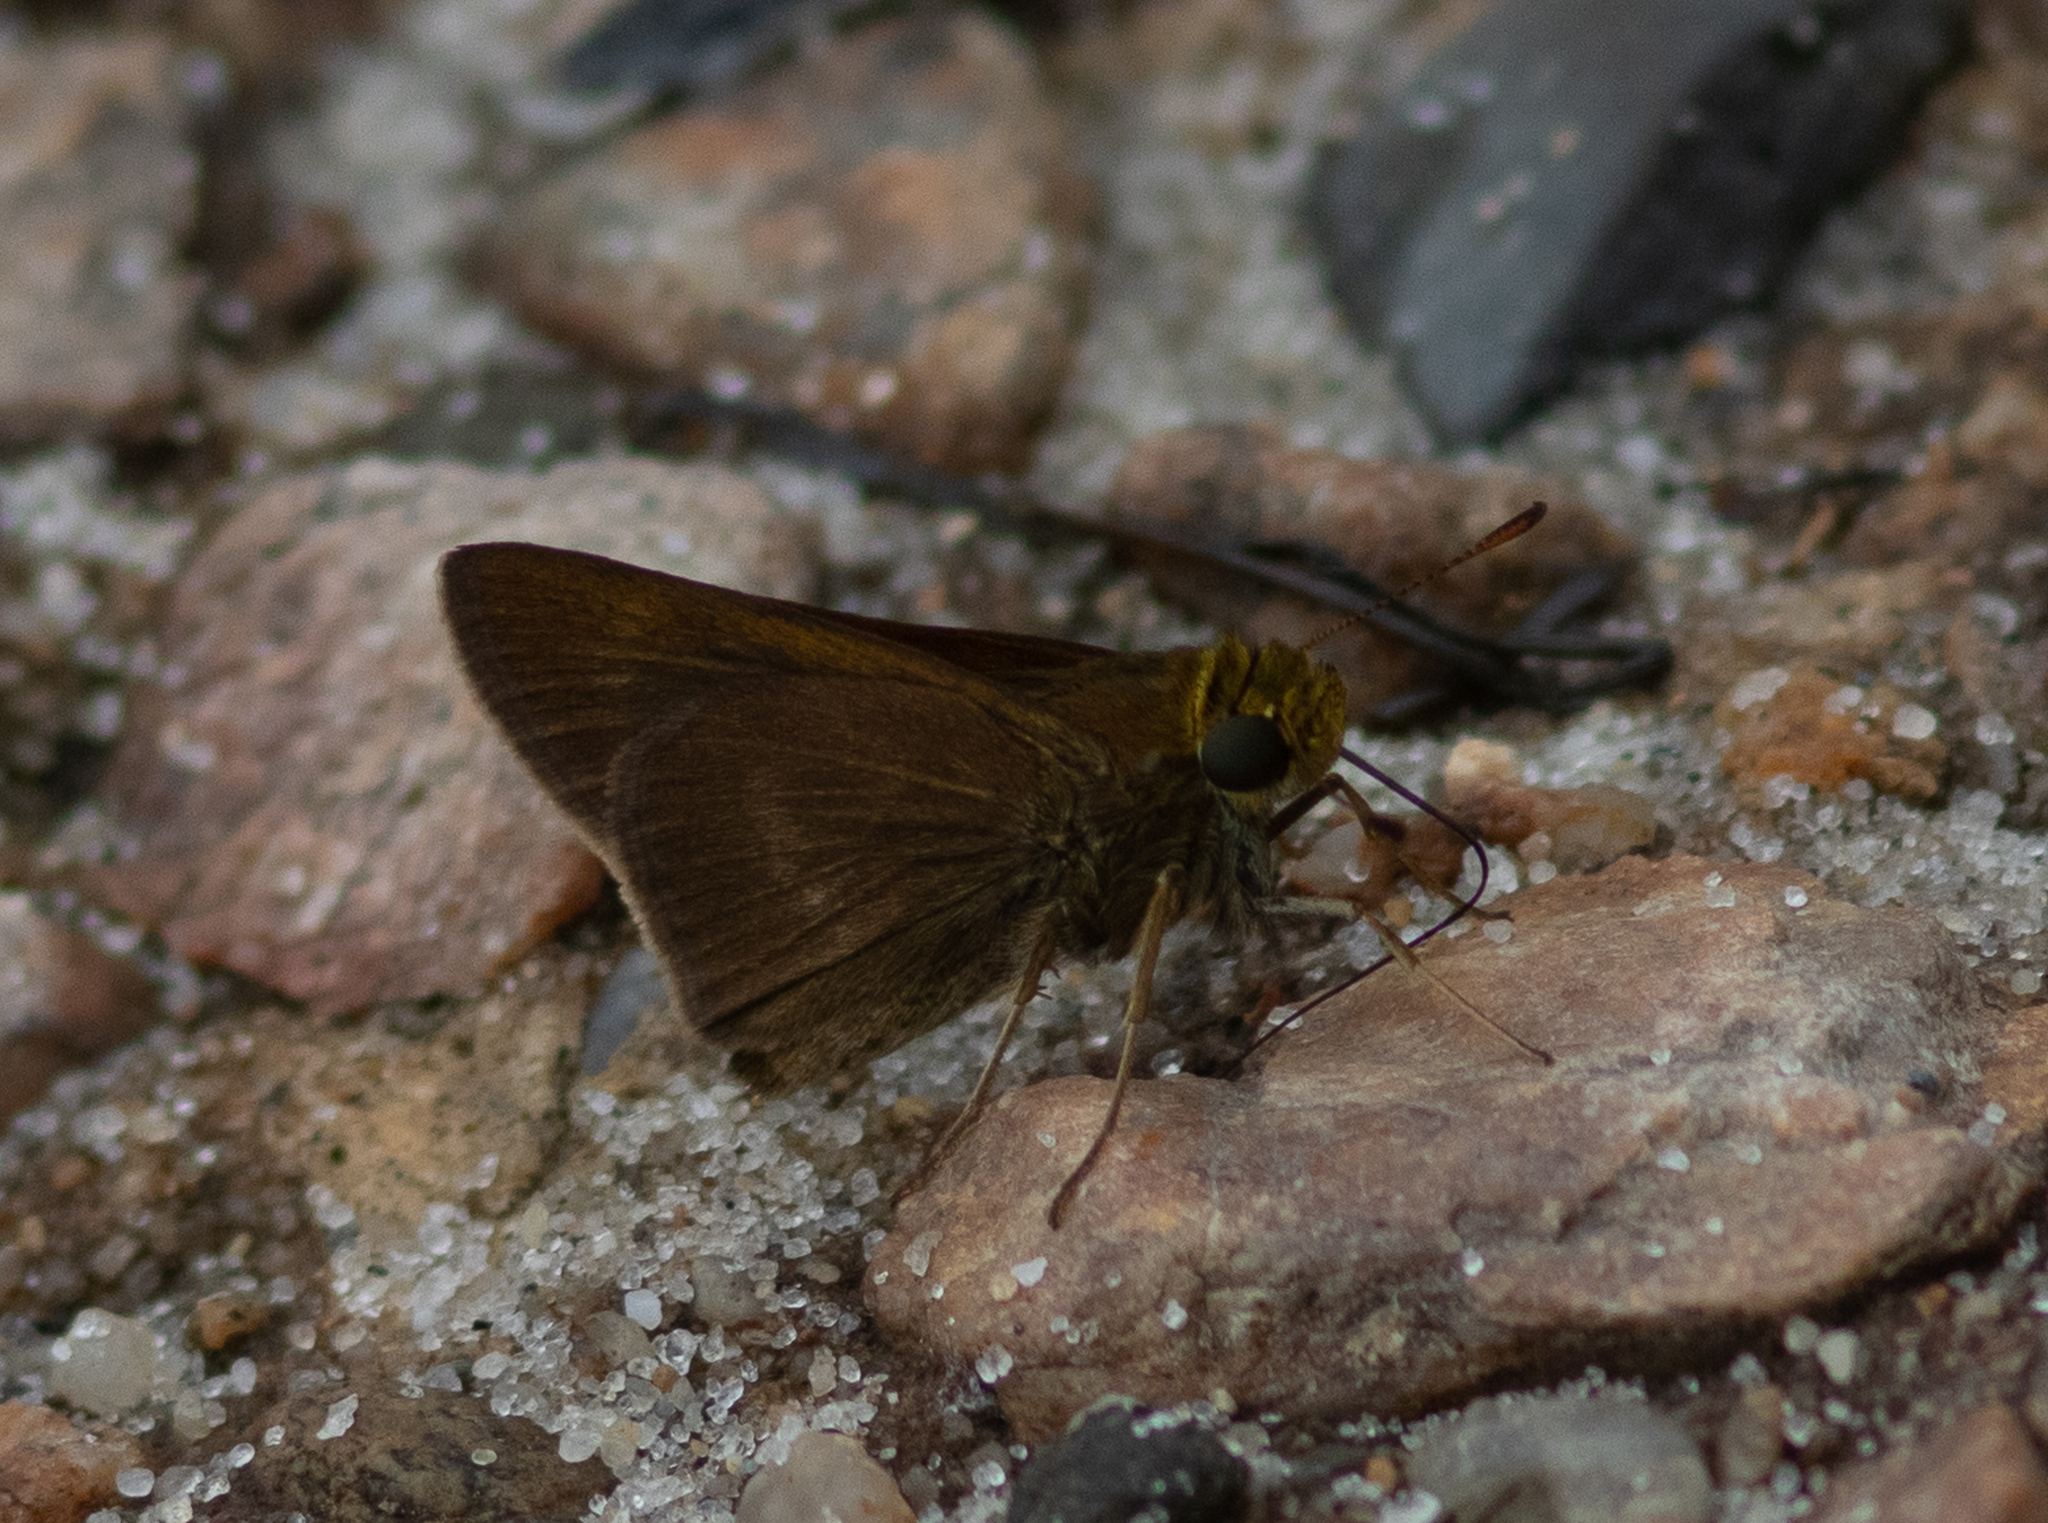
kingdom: Animalia
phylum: Arthropoda
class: Insecta
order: Lepidoptera
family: Hesperiidae
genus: Euphyes
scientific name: Euphyes vestris
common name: Dun skipper
